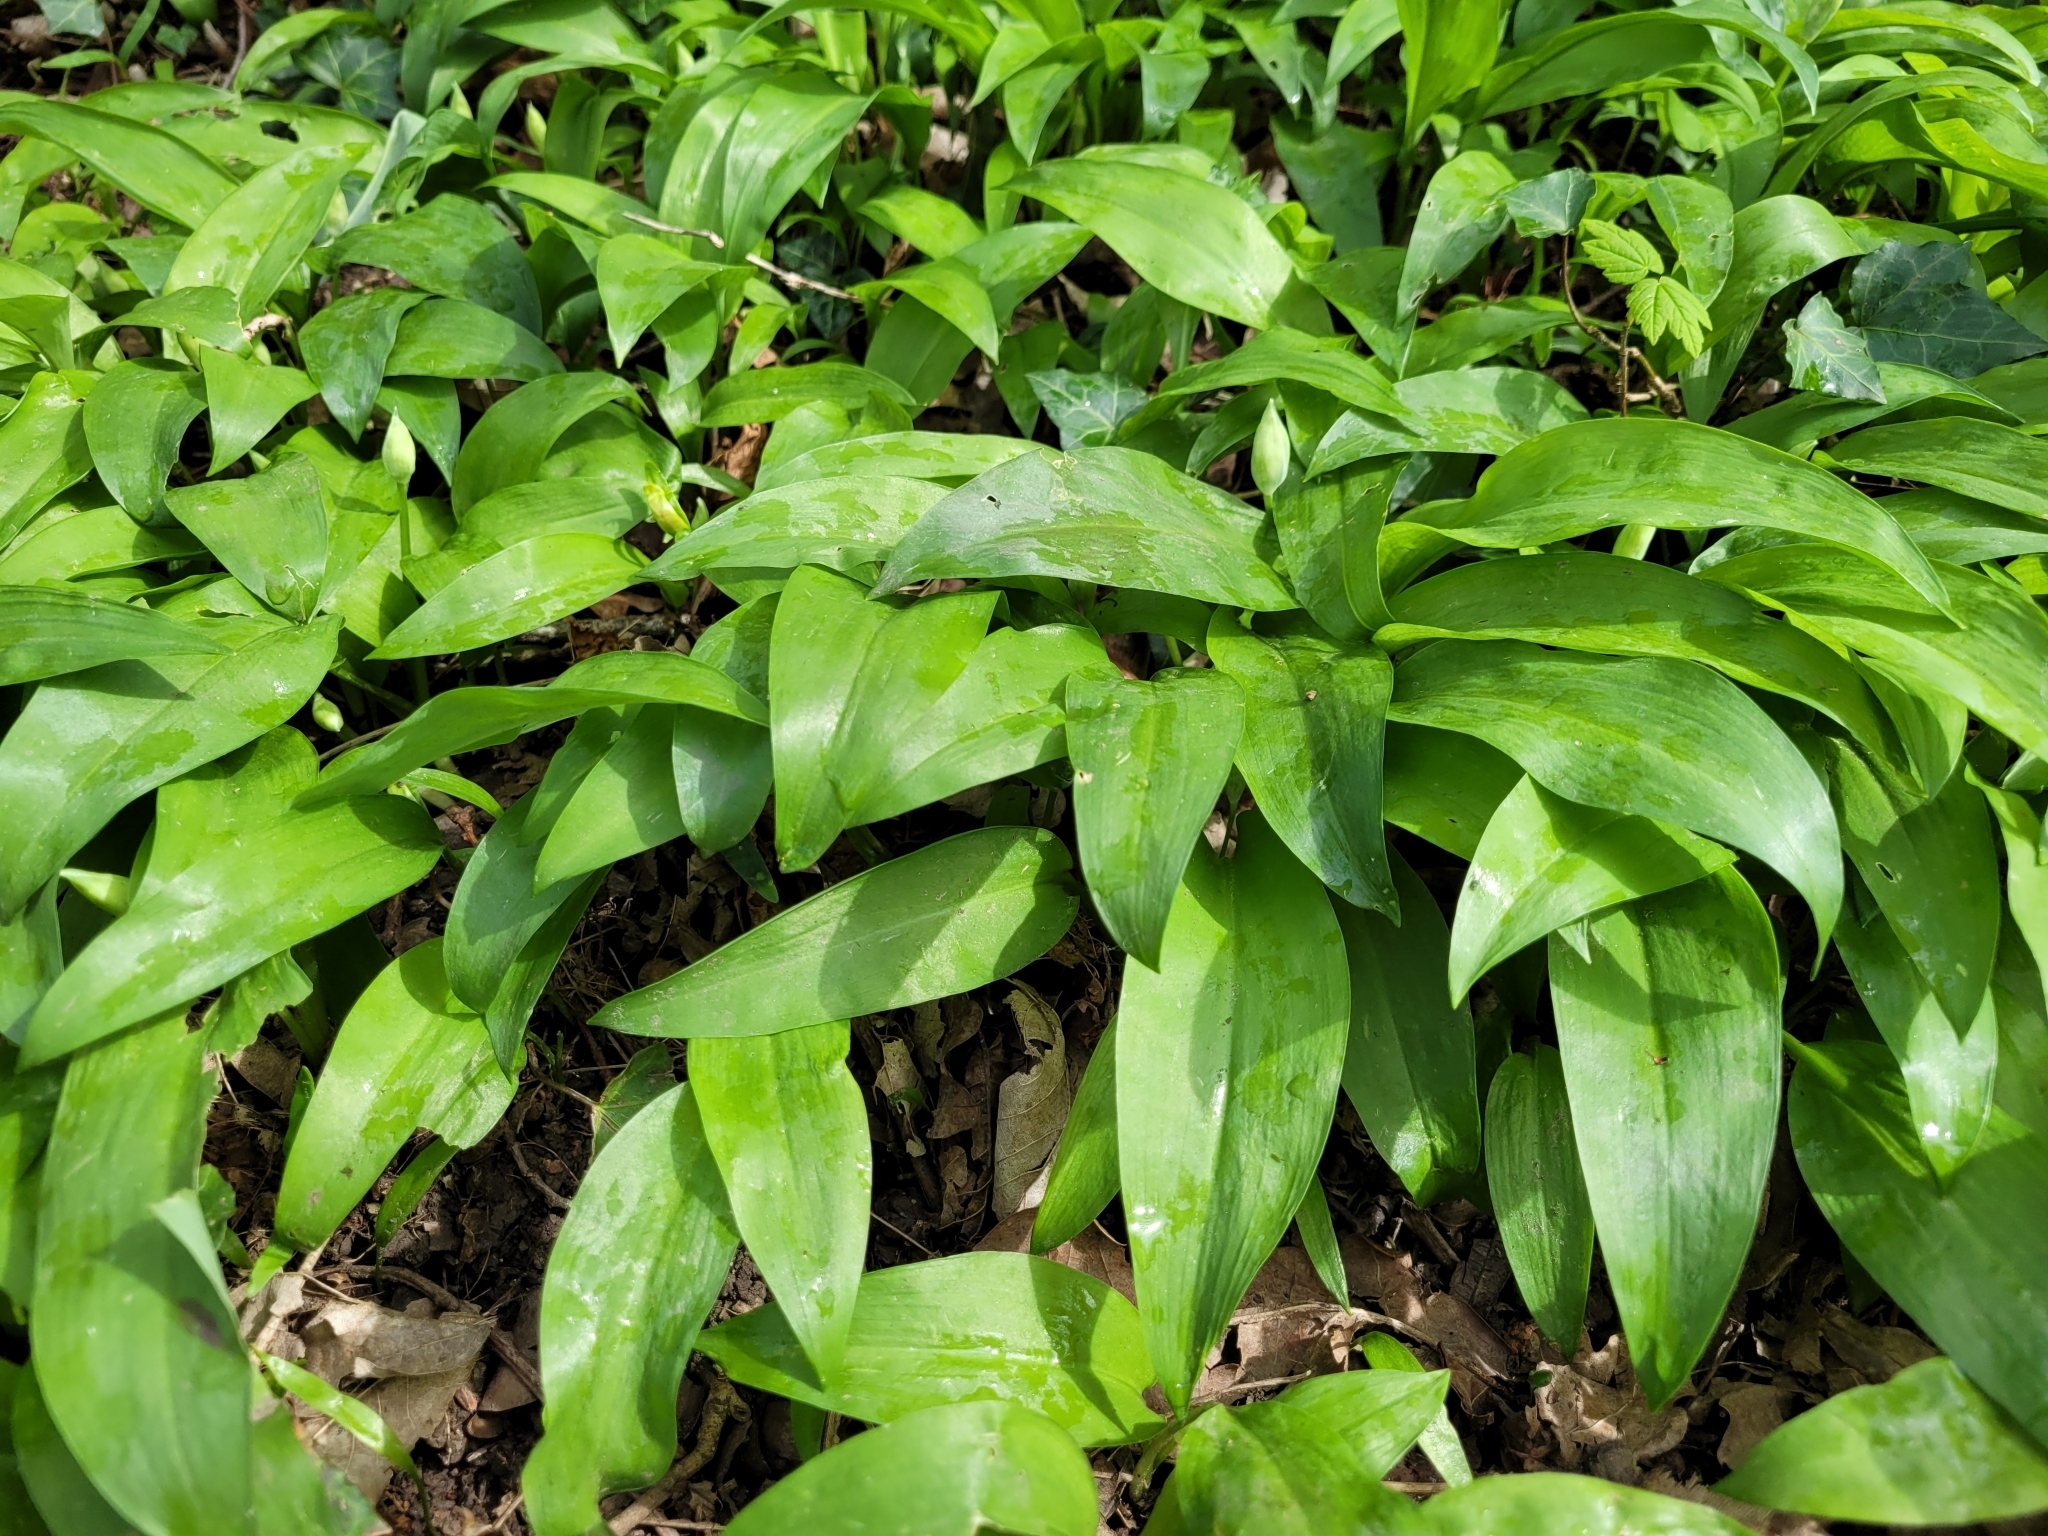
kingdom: Plantae
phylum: Tracheophyta
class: Liliopsida
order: Asparagales
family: Amaryllidaceae
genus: Allium
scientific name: Allium ursinum
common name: Ramsons
